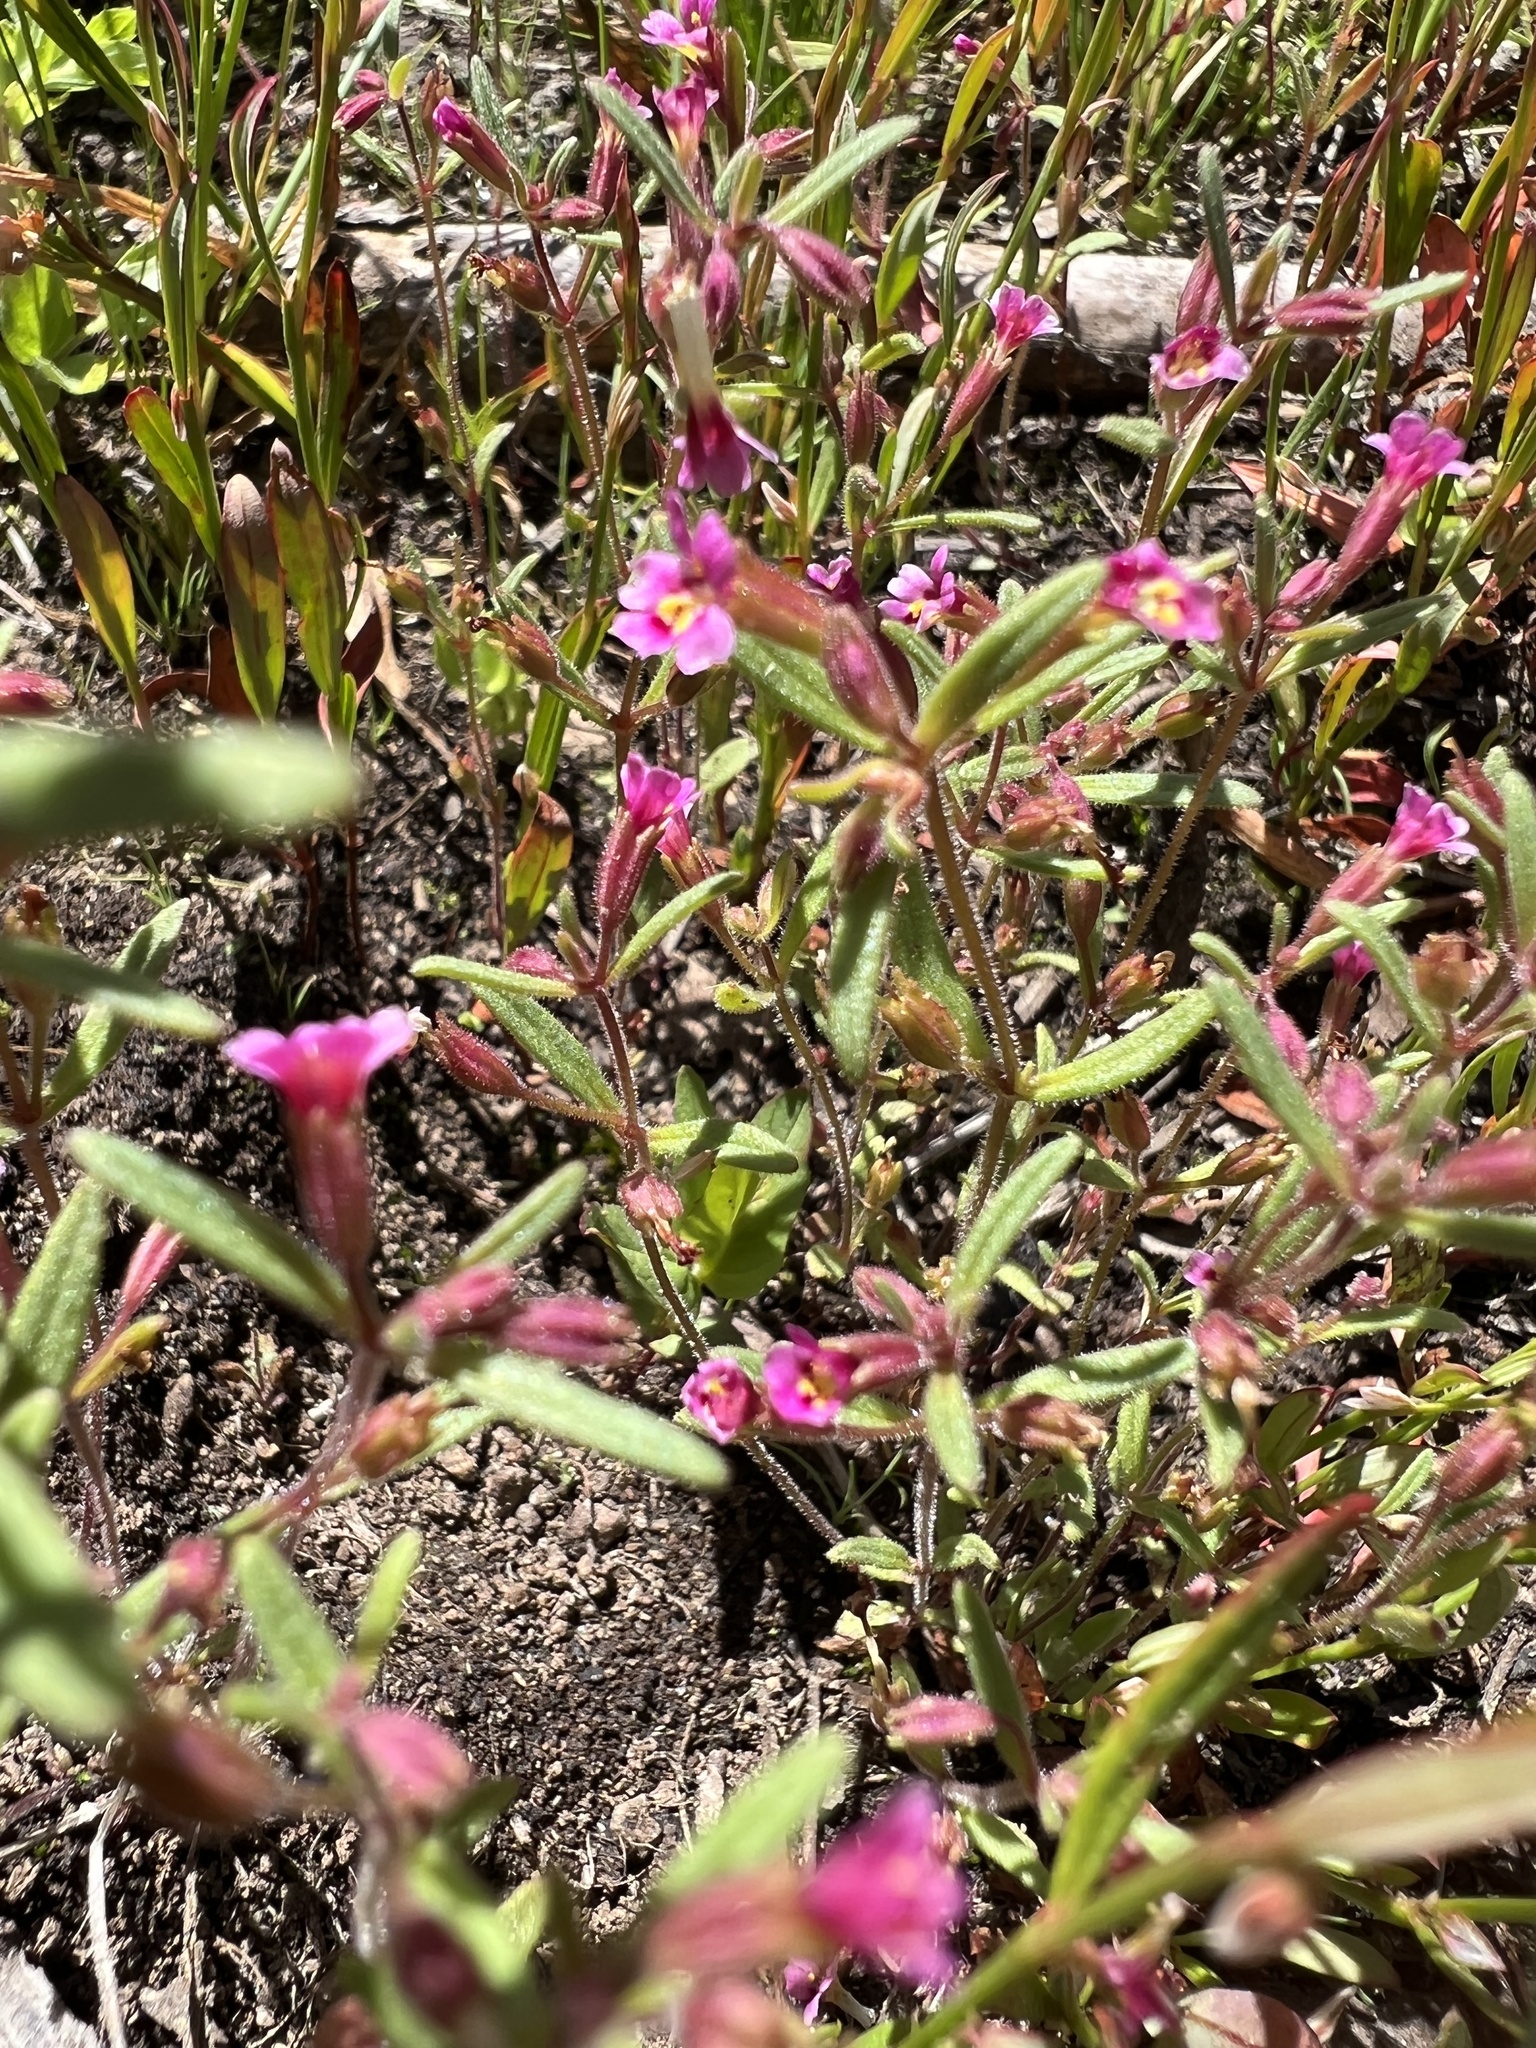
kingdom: Plantae
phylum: Tracheophyta
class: Magnoliopsida
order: Lamiales
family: Phrymaceae
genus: Erythranthe
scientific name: Erythranthe breweri
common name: Brewer's monkeyflower
